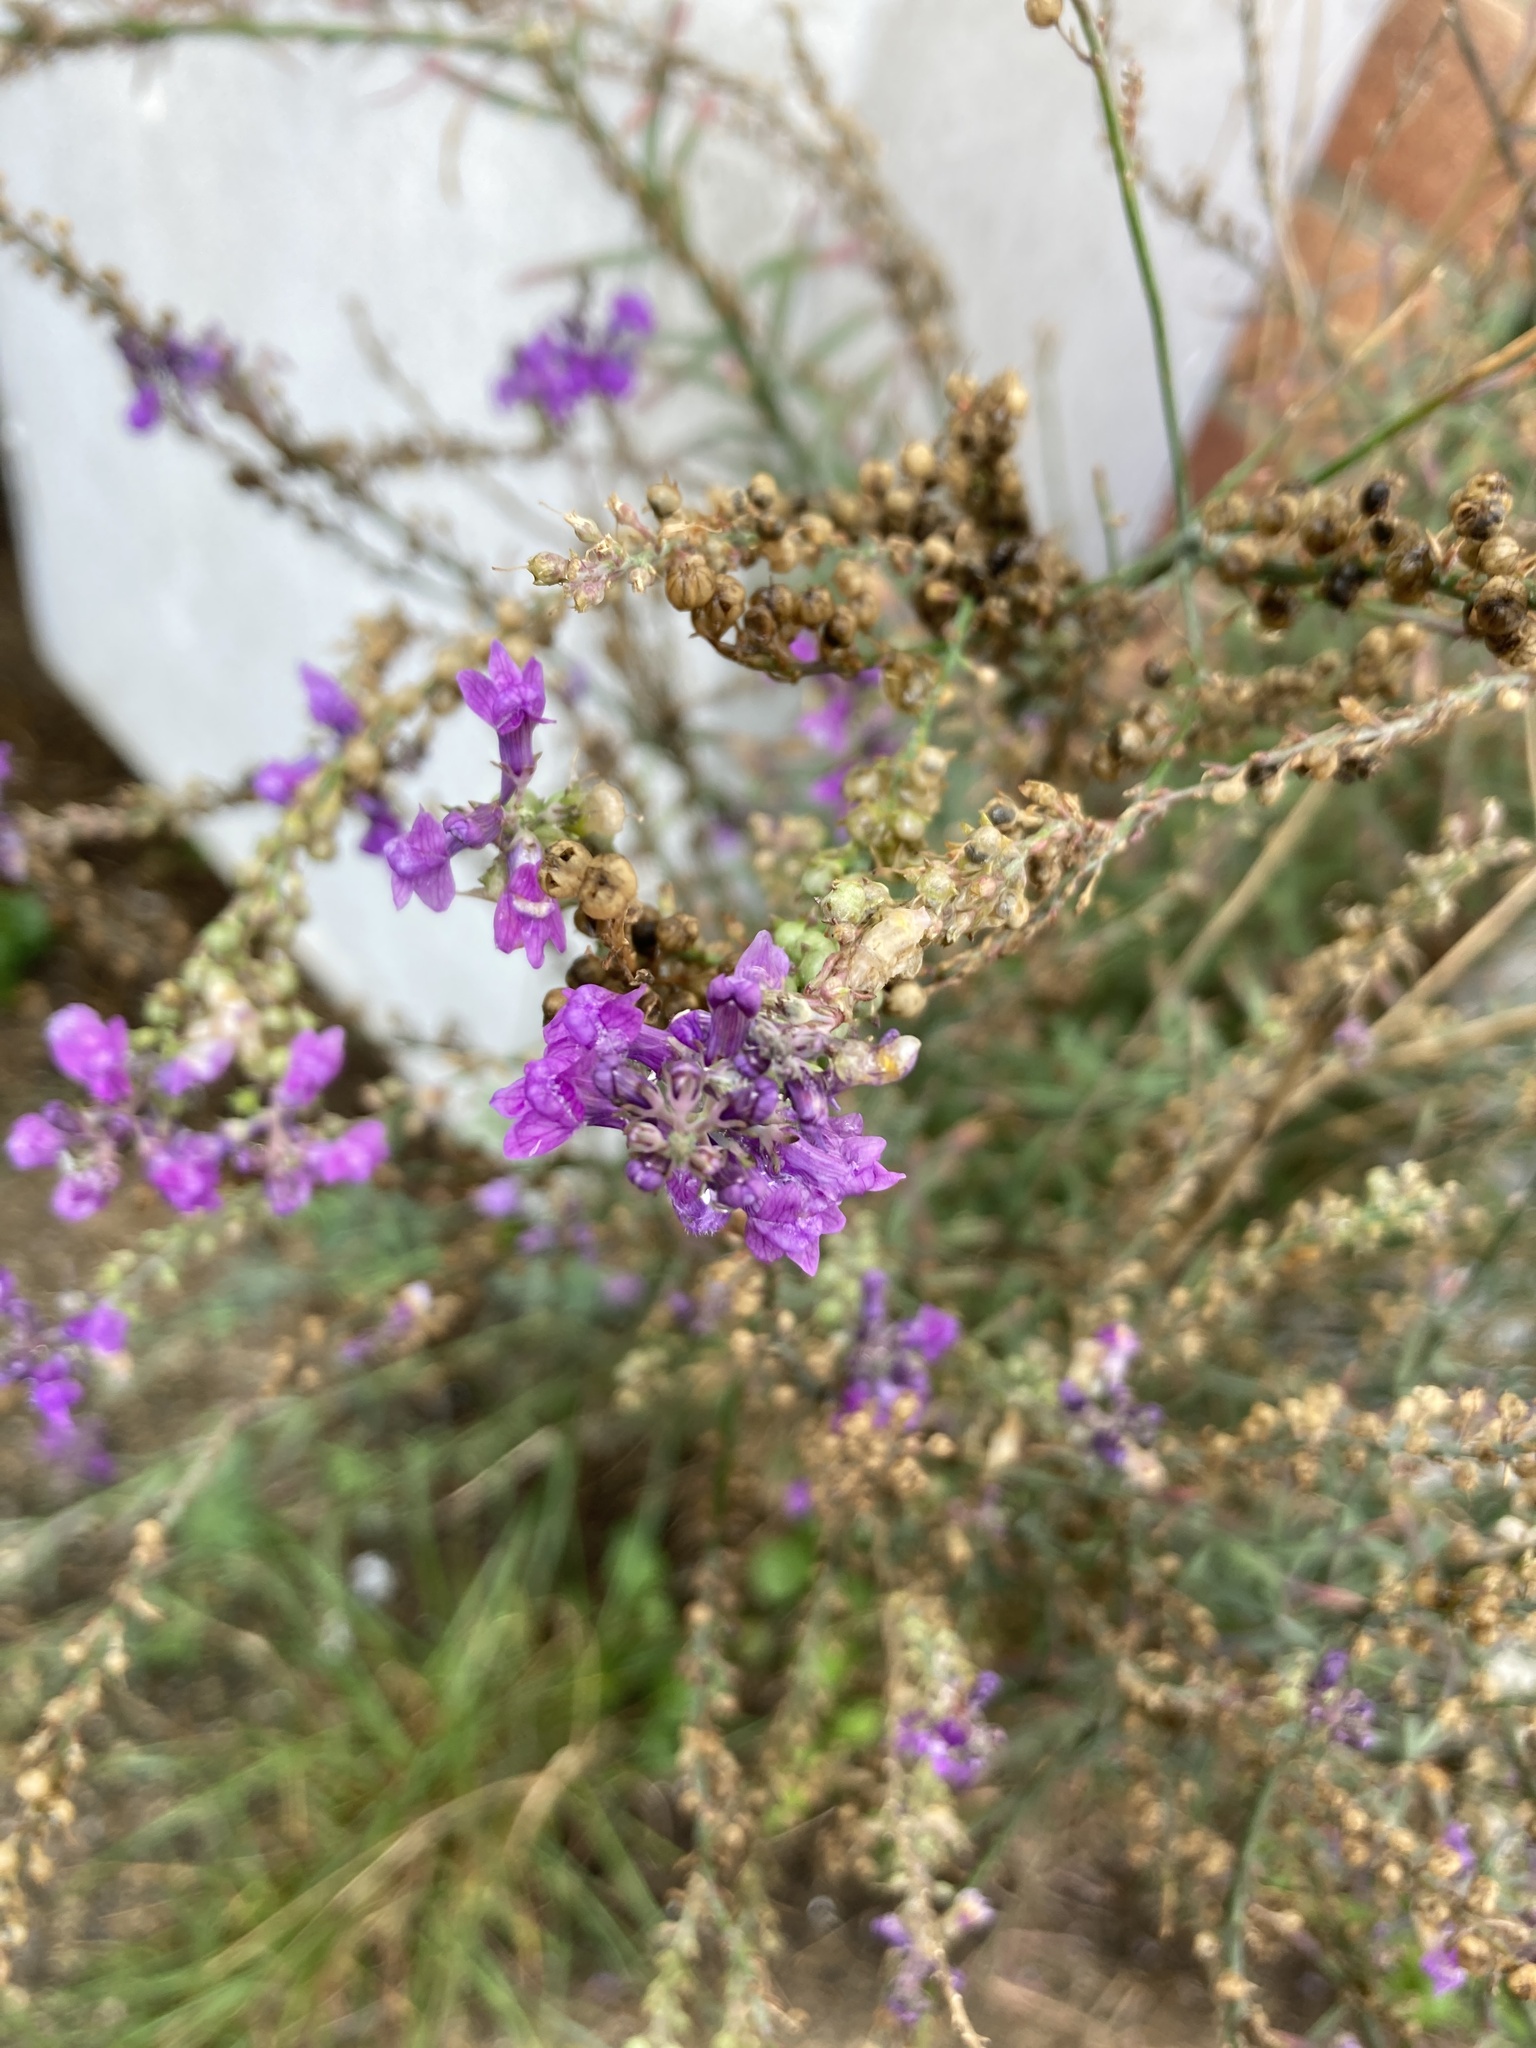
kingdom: Plantae
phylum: Tracheophyta
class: Magnoliopsida
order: Lamiales
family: Plantaginaceae
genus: Linaria
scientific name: Linaria purpurea
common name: Purple toadflax
